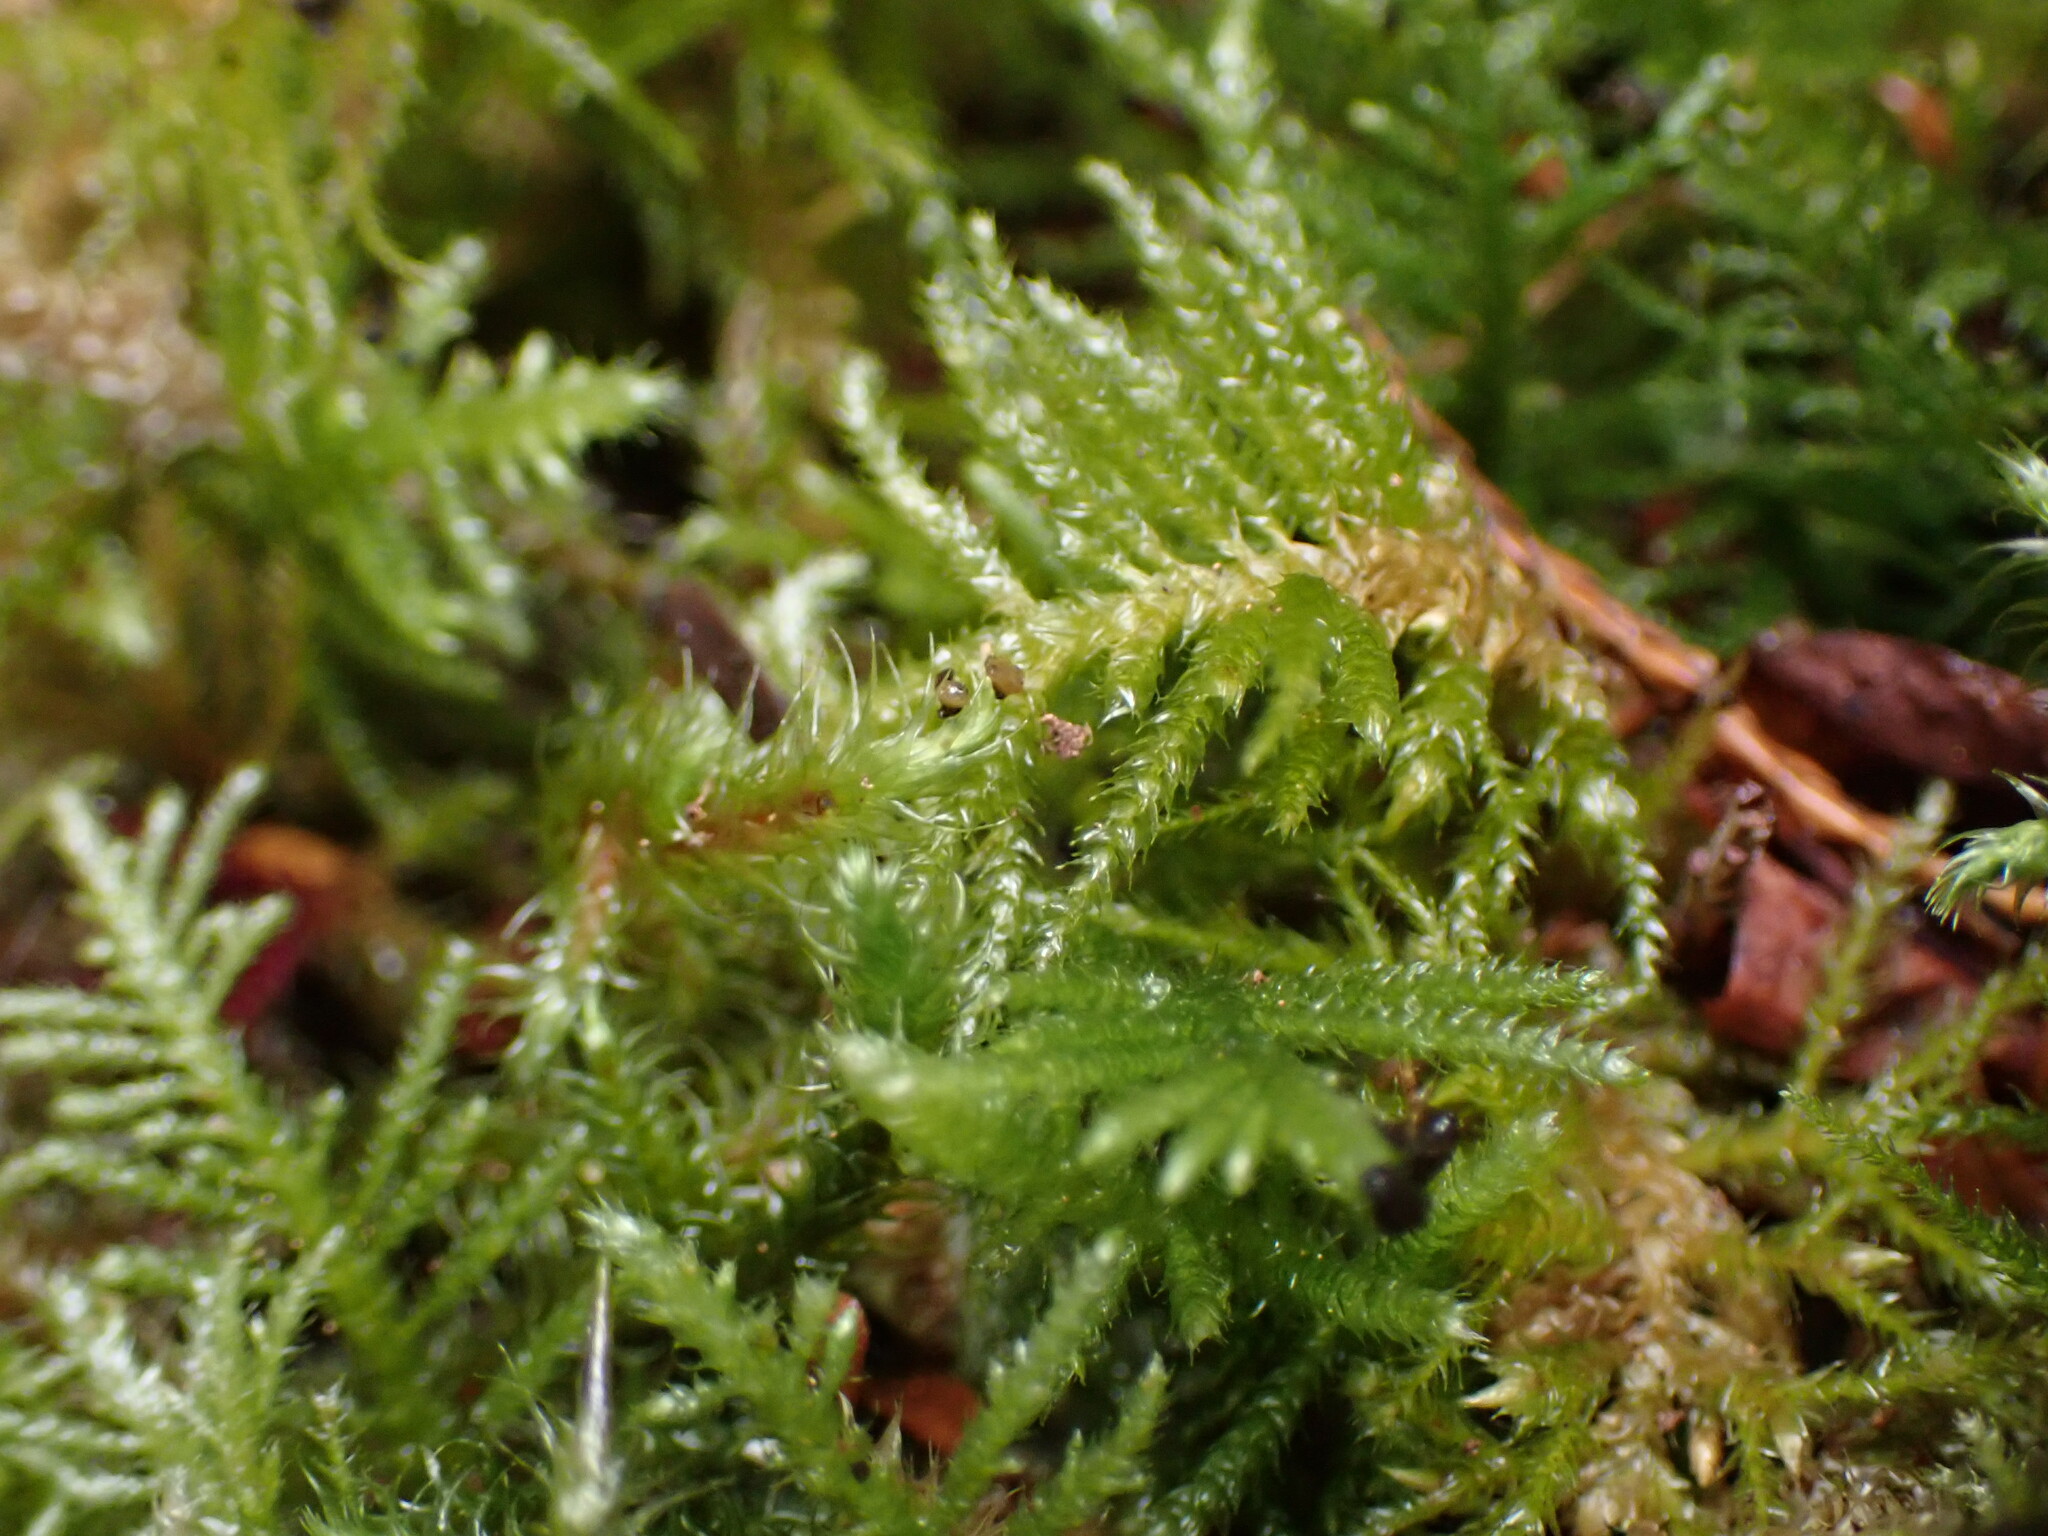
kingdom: Plantae
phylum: Bryophyta
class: Bryopsida
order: Hypnales
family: Brachytheciaceae
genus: Kindbergia
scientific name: Kindbergia oregana
